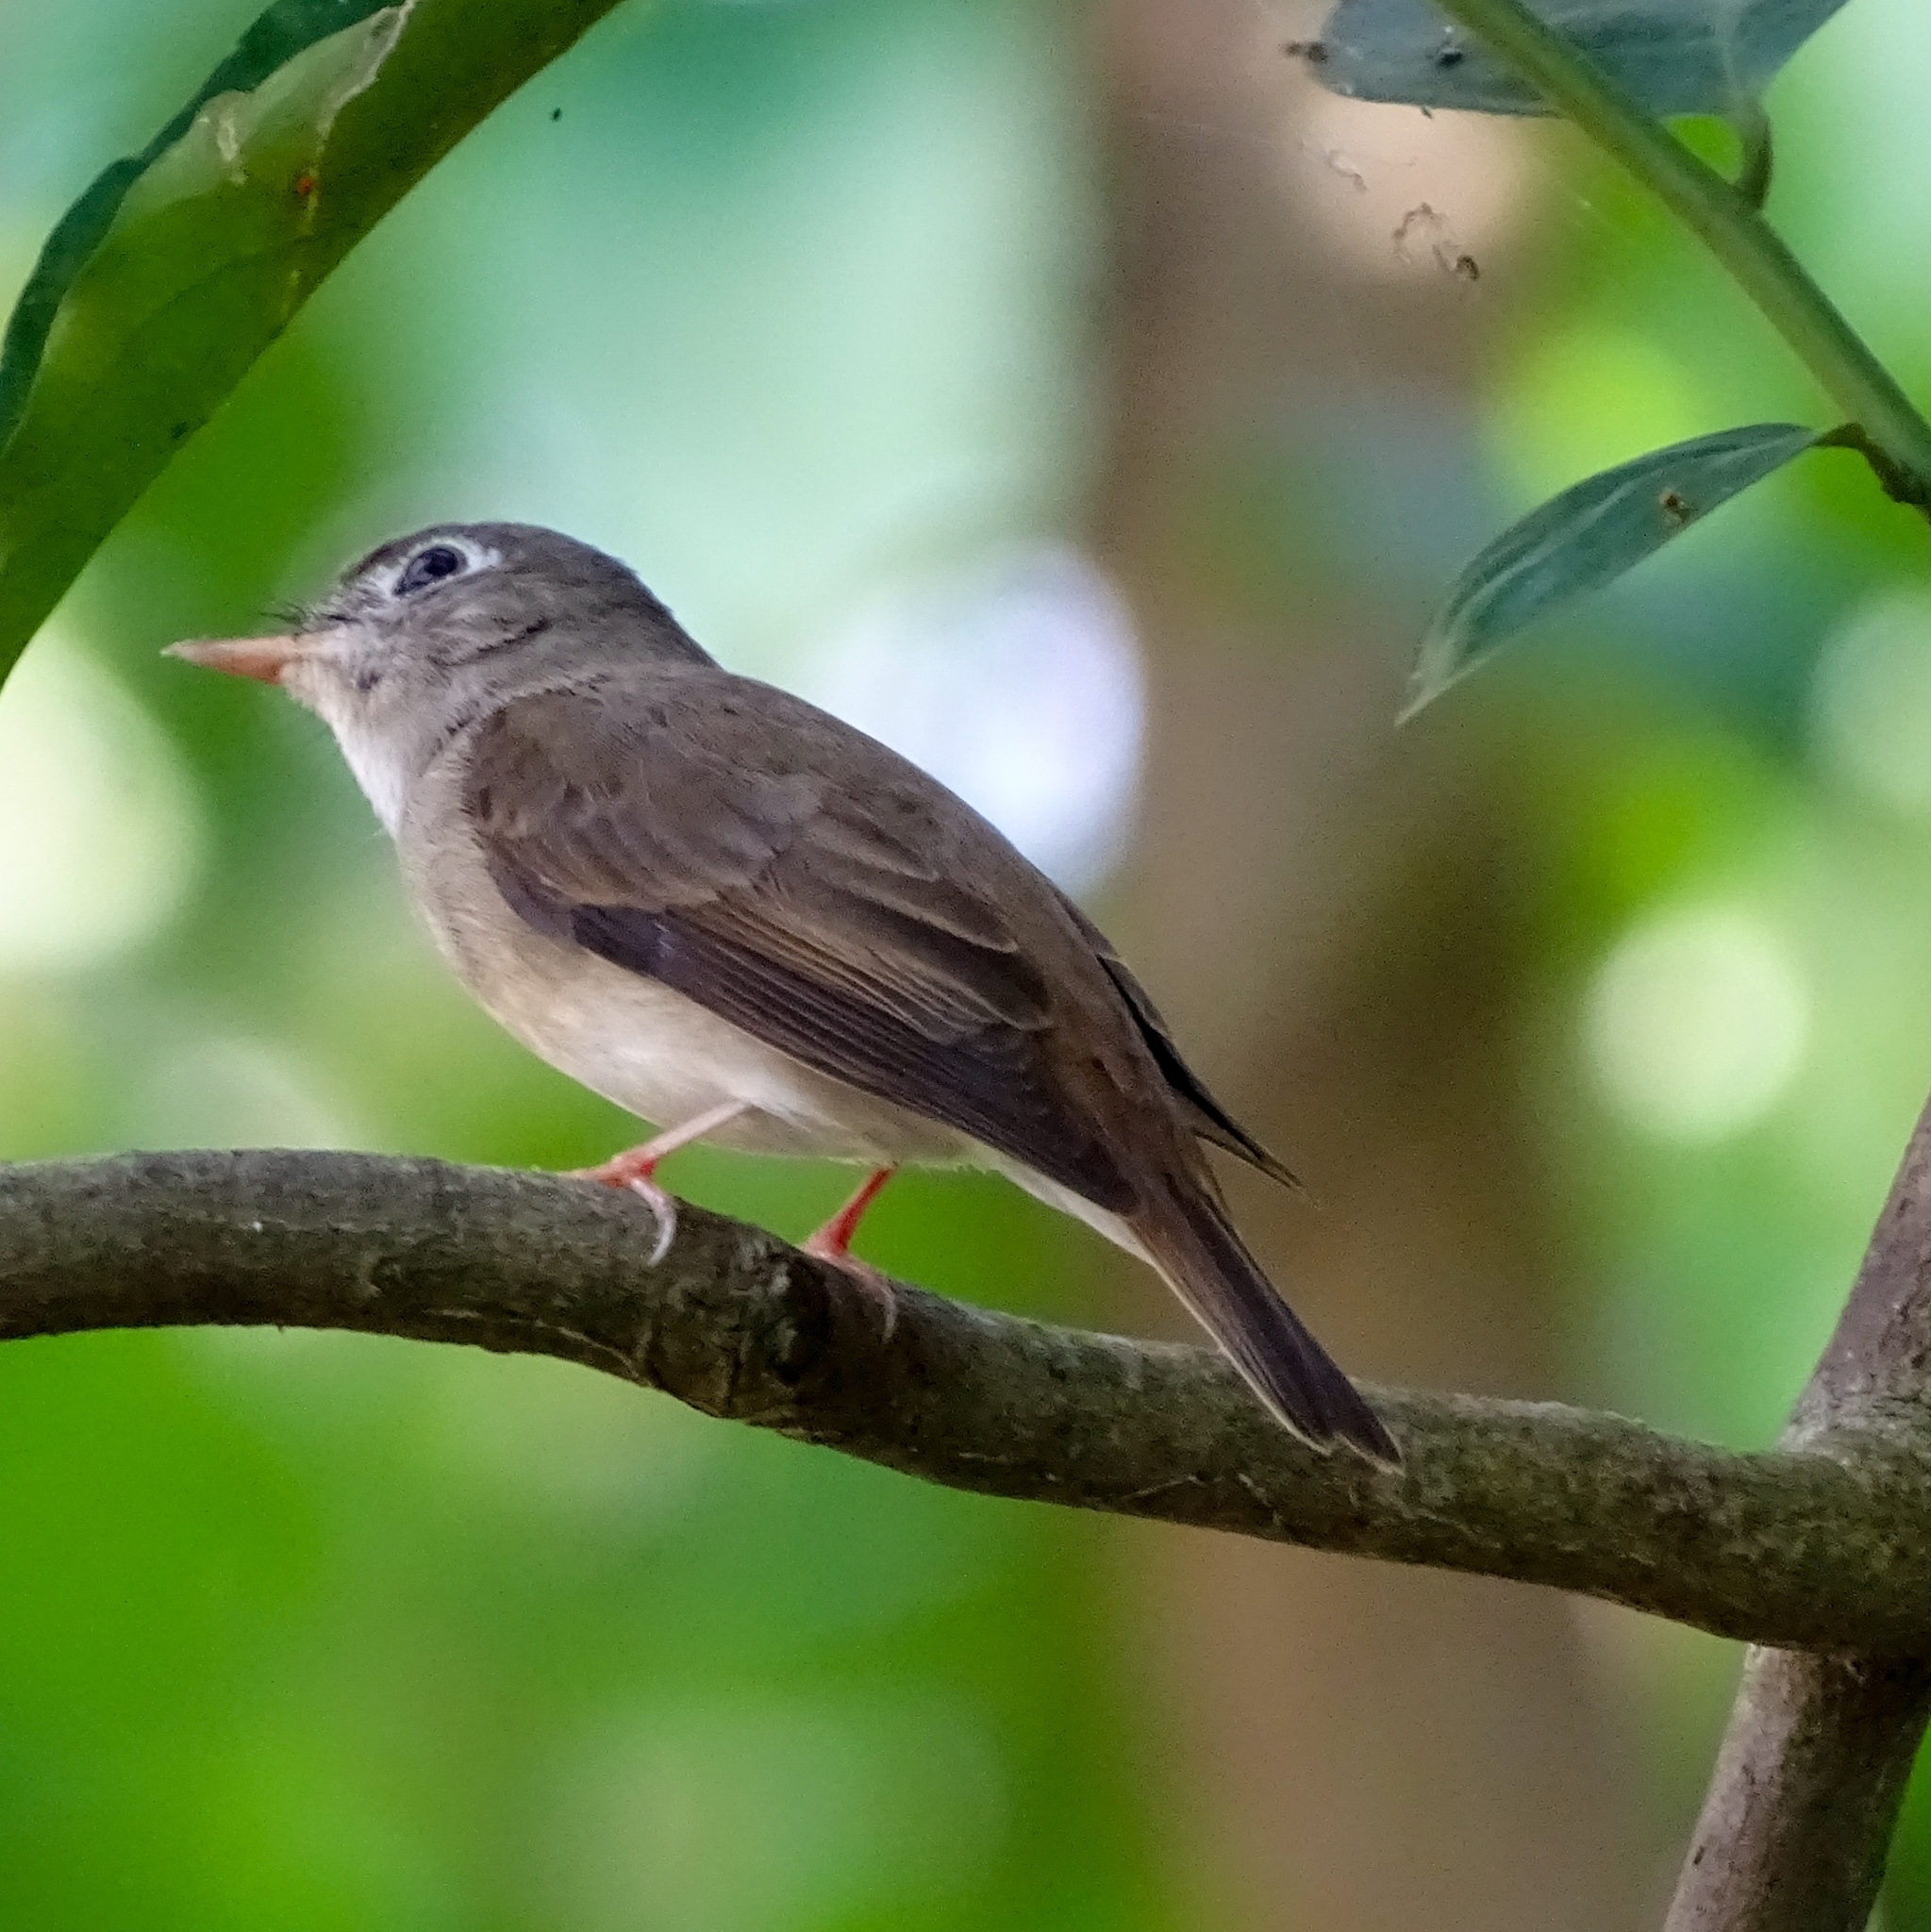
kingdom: Animalia
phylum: Chordata
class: Aves
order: Passeriformes
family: Muscicapidae
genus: Muscicapa
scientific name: Muscicapa muttui
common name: Brown-breasted flycatcher
